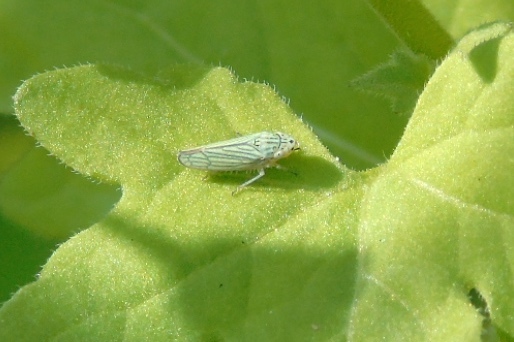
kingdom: Animalia
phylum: Arthropoda
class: Insecta
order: Hemiptera
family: Cicadellidae
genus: Graphocephala
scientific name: Graphocephala cythura
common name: Leafhopper
